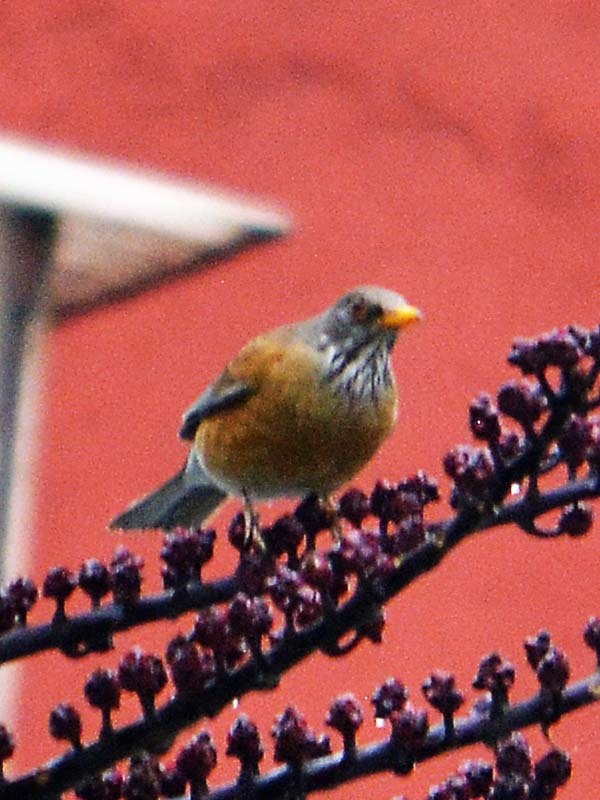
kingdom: Animalia
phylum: Chordata
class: Aves
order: Passeriformes
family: Turdidae
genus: Turdus
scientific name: Turdus rufopalliatus
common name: Rufous-backed robin
